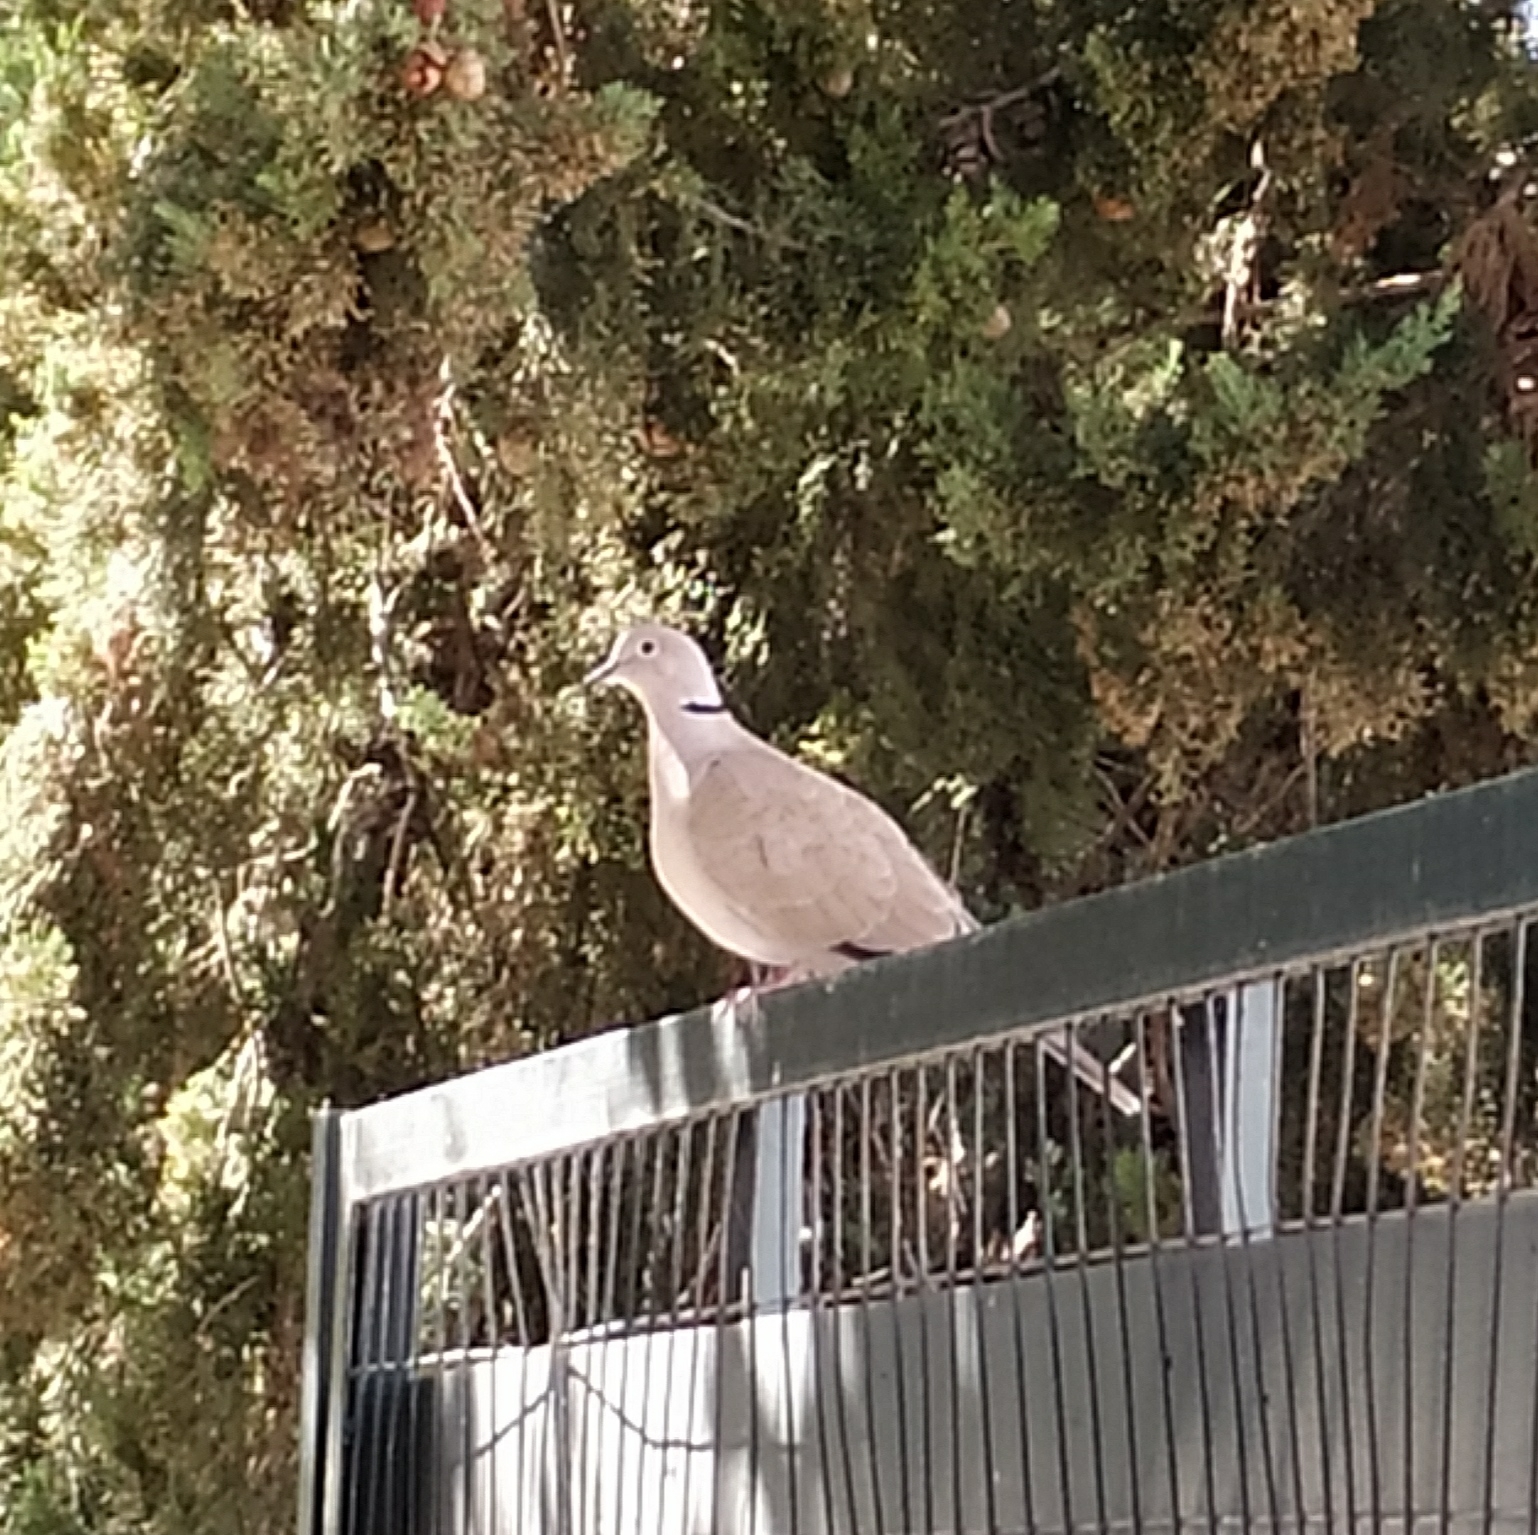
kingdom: Animalia
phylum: Chordata
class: Aves
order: Columbiformes
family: Columbidae
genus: Streptopelia
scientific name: Streptopelia decaocto
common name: Eurasian collared dove
